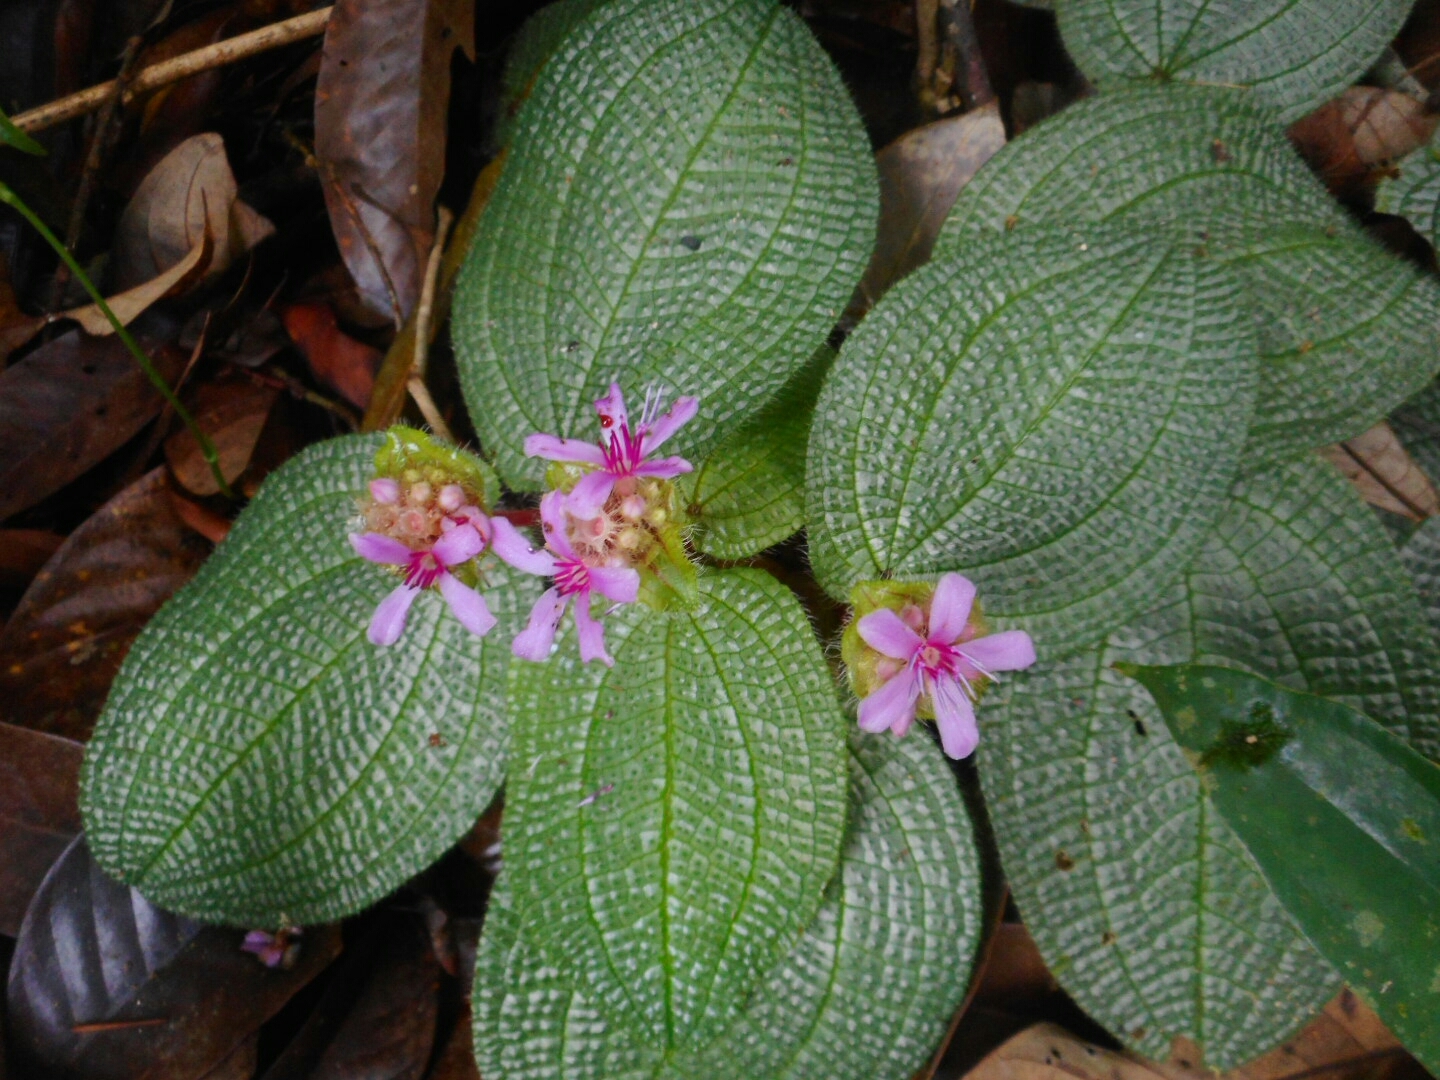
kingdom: Plantae
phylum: Tracheophyta
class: Magnoliopsida
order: Myrtales
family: Melastomataceae
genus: Nephoanthus
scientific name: Nephoanthus prostratus
